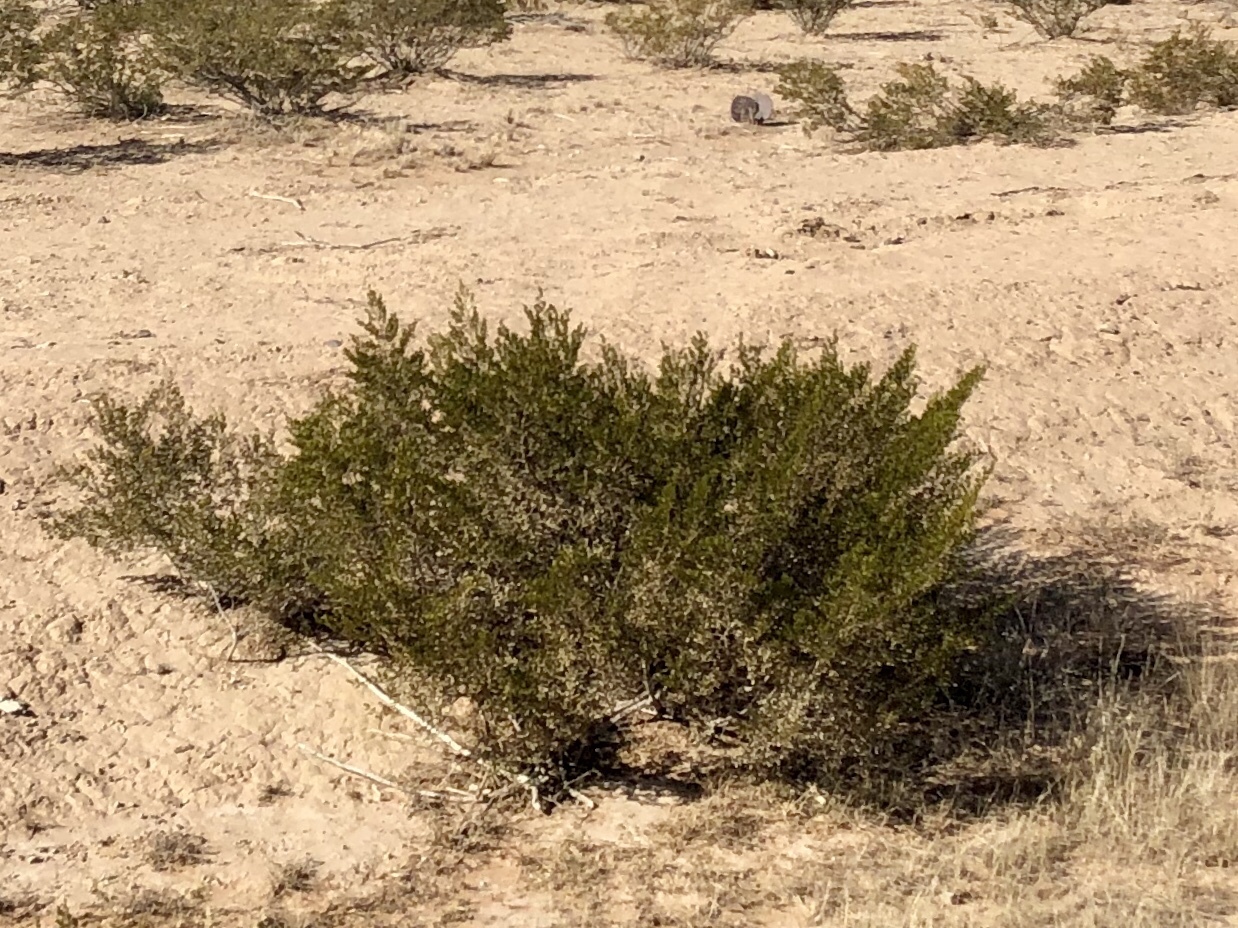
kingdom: Plantae
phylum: Tracheophyta
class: Magnoliopsida
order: Zygophyllales
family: Zygophyllaceae
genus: Larrea
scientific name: Larrea tridentata
